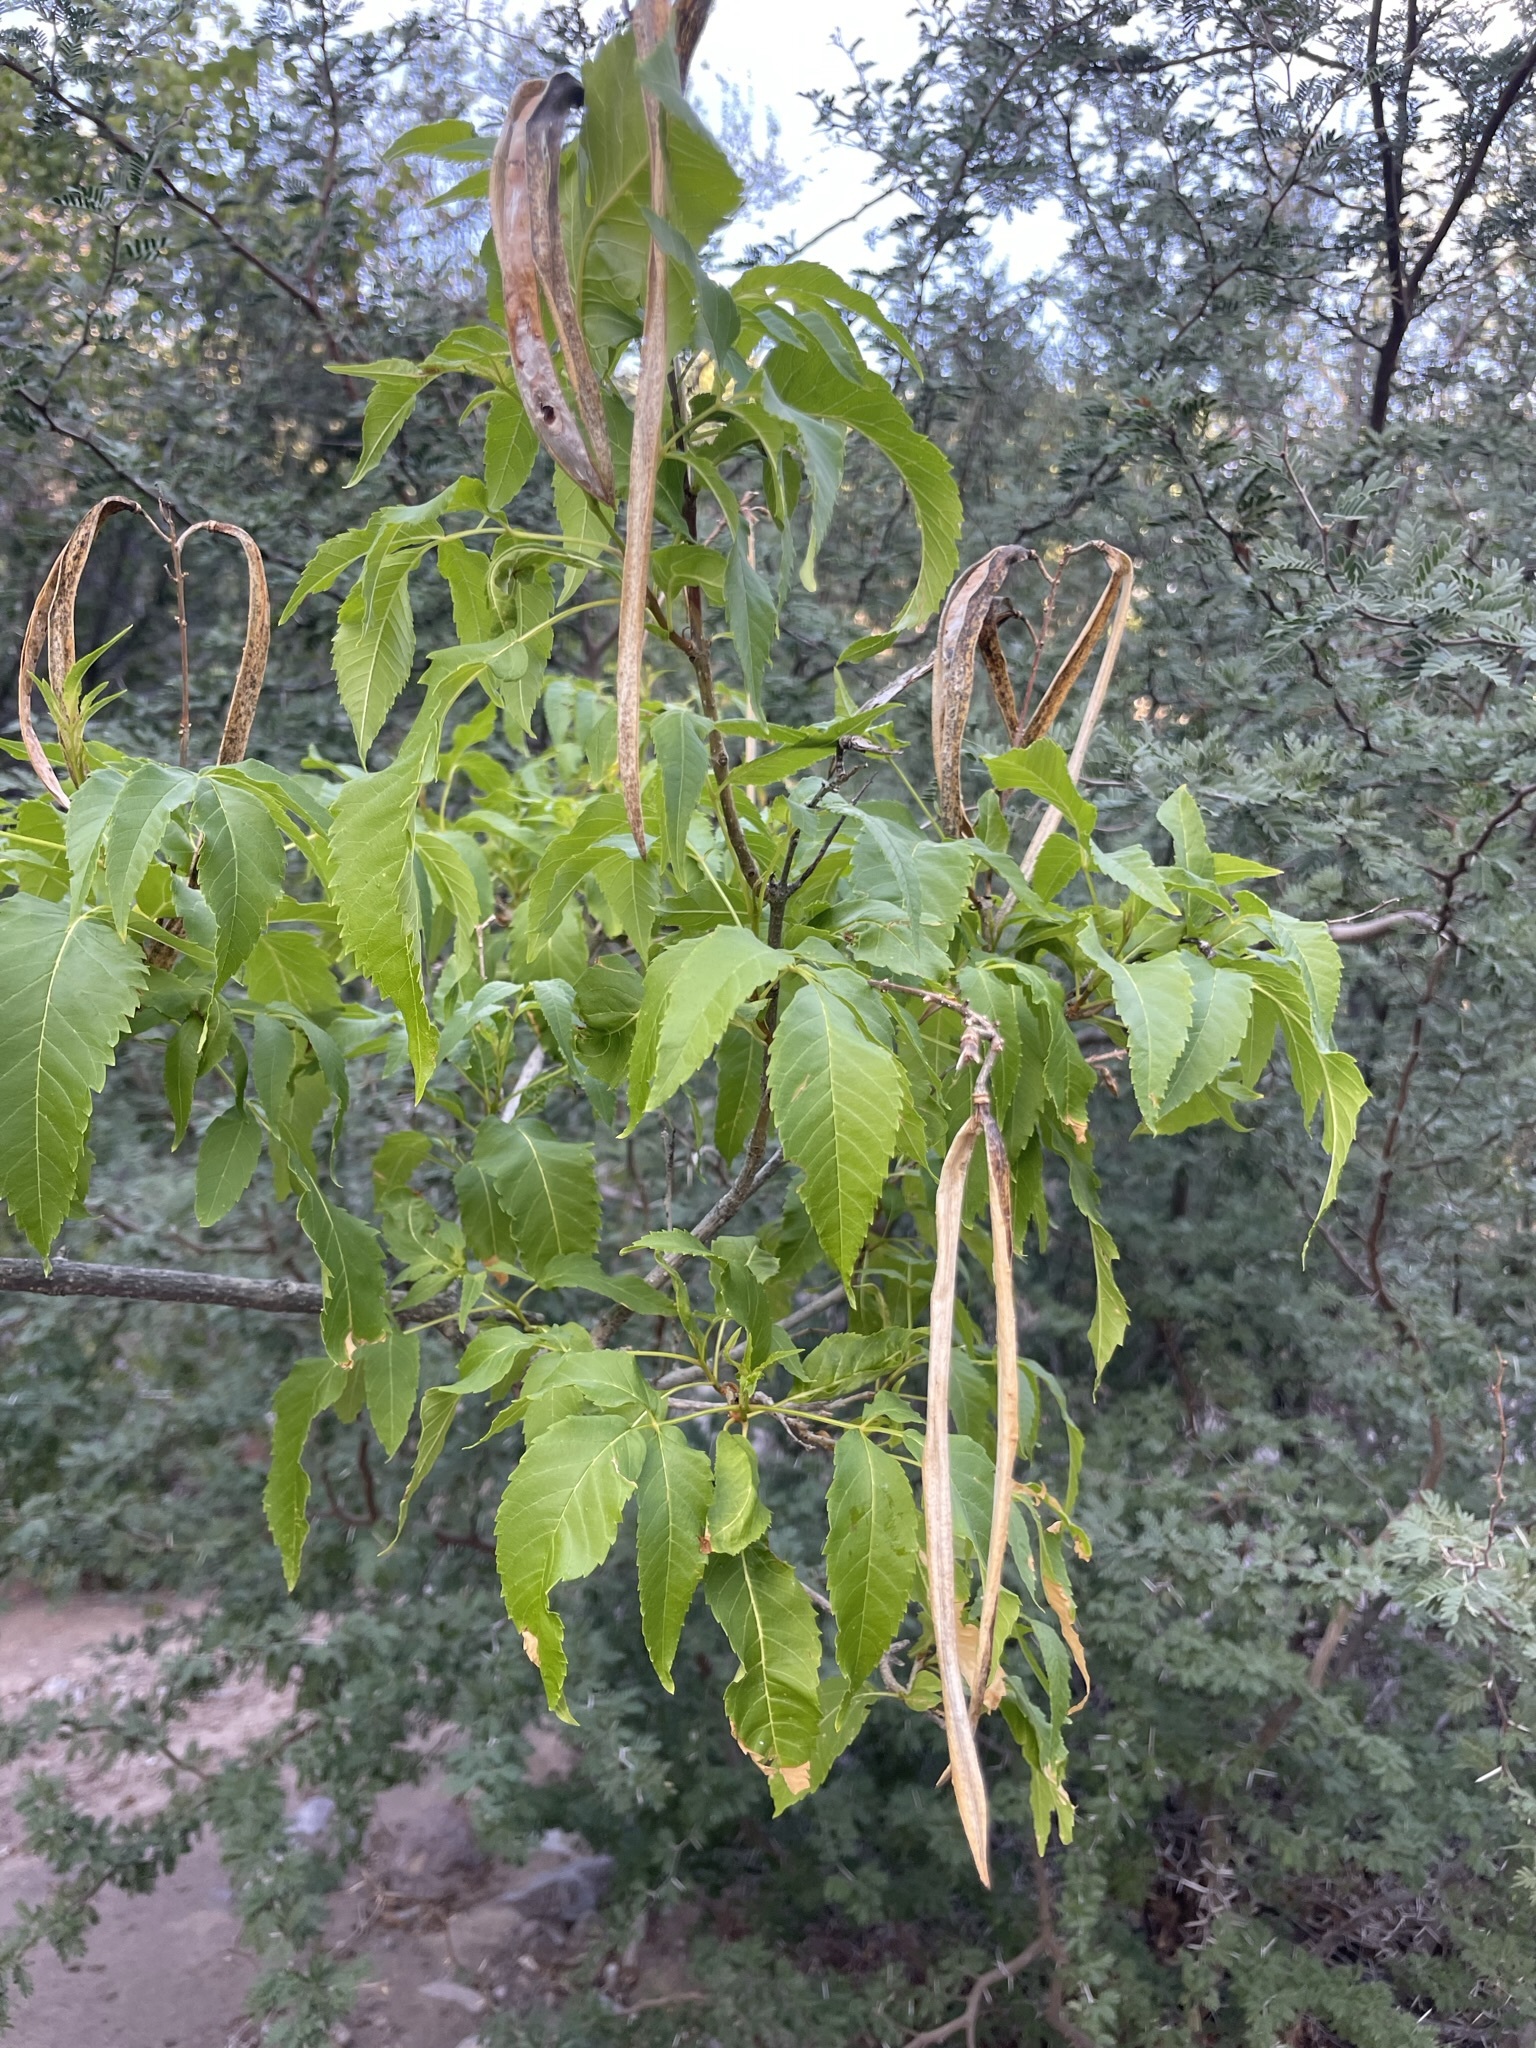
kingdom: Plantae
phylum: Tracheophyta
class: Magnoliopsida
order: Lamiales
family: Bignoniaceae
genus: Tecoma
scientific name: Tecoma stans
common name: Yellow trumpetbush
